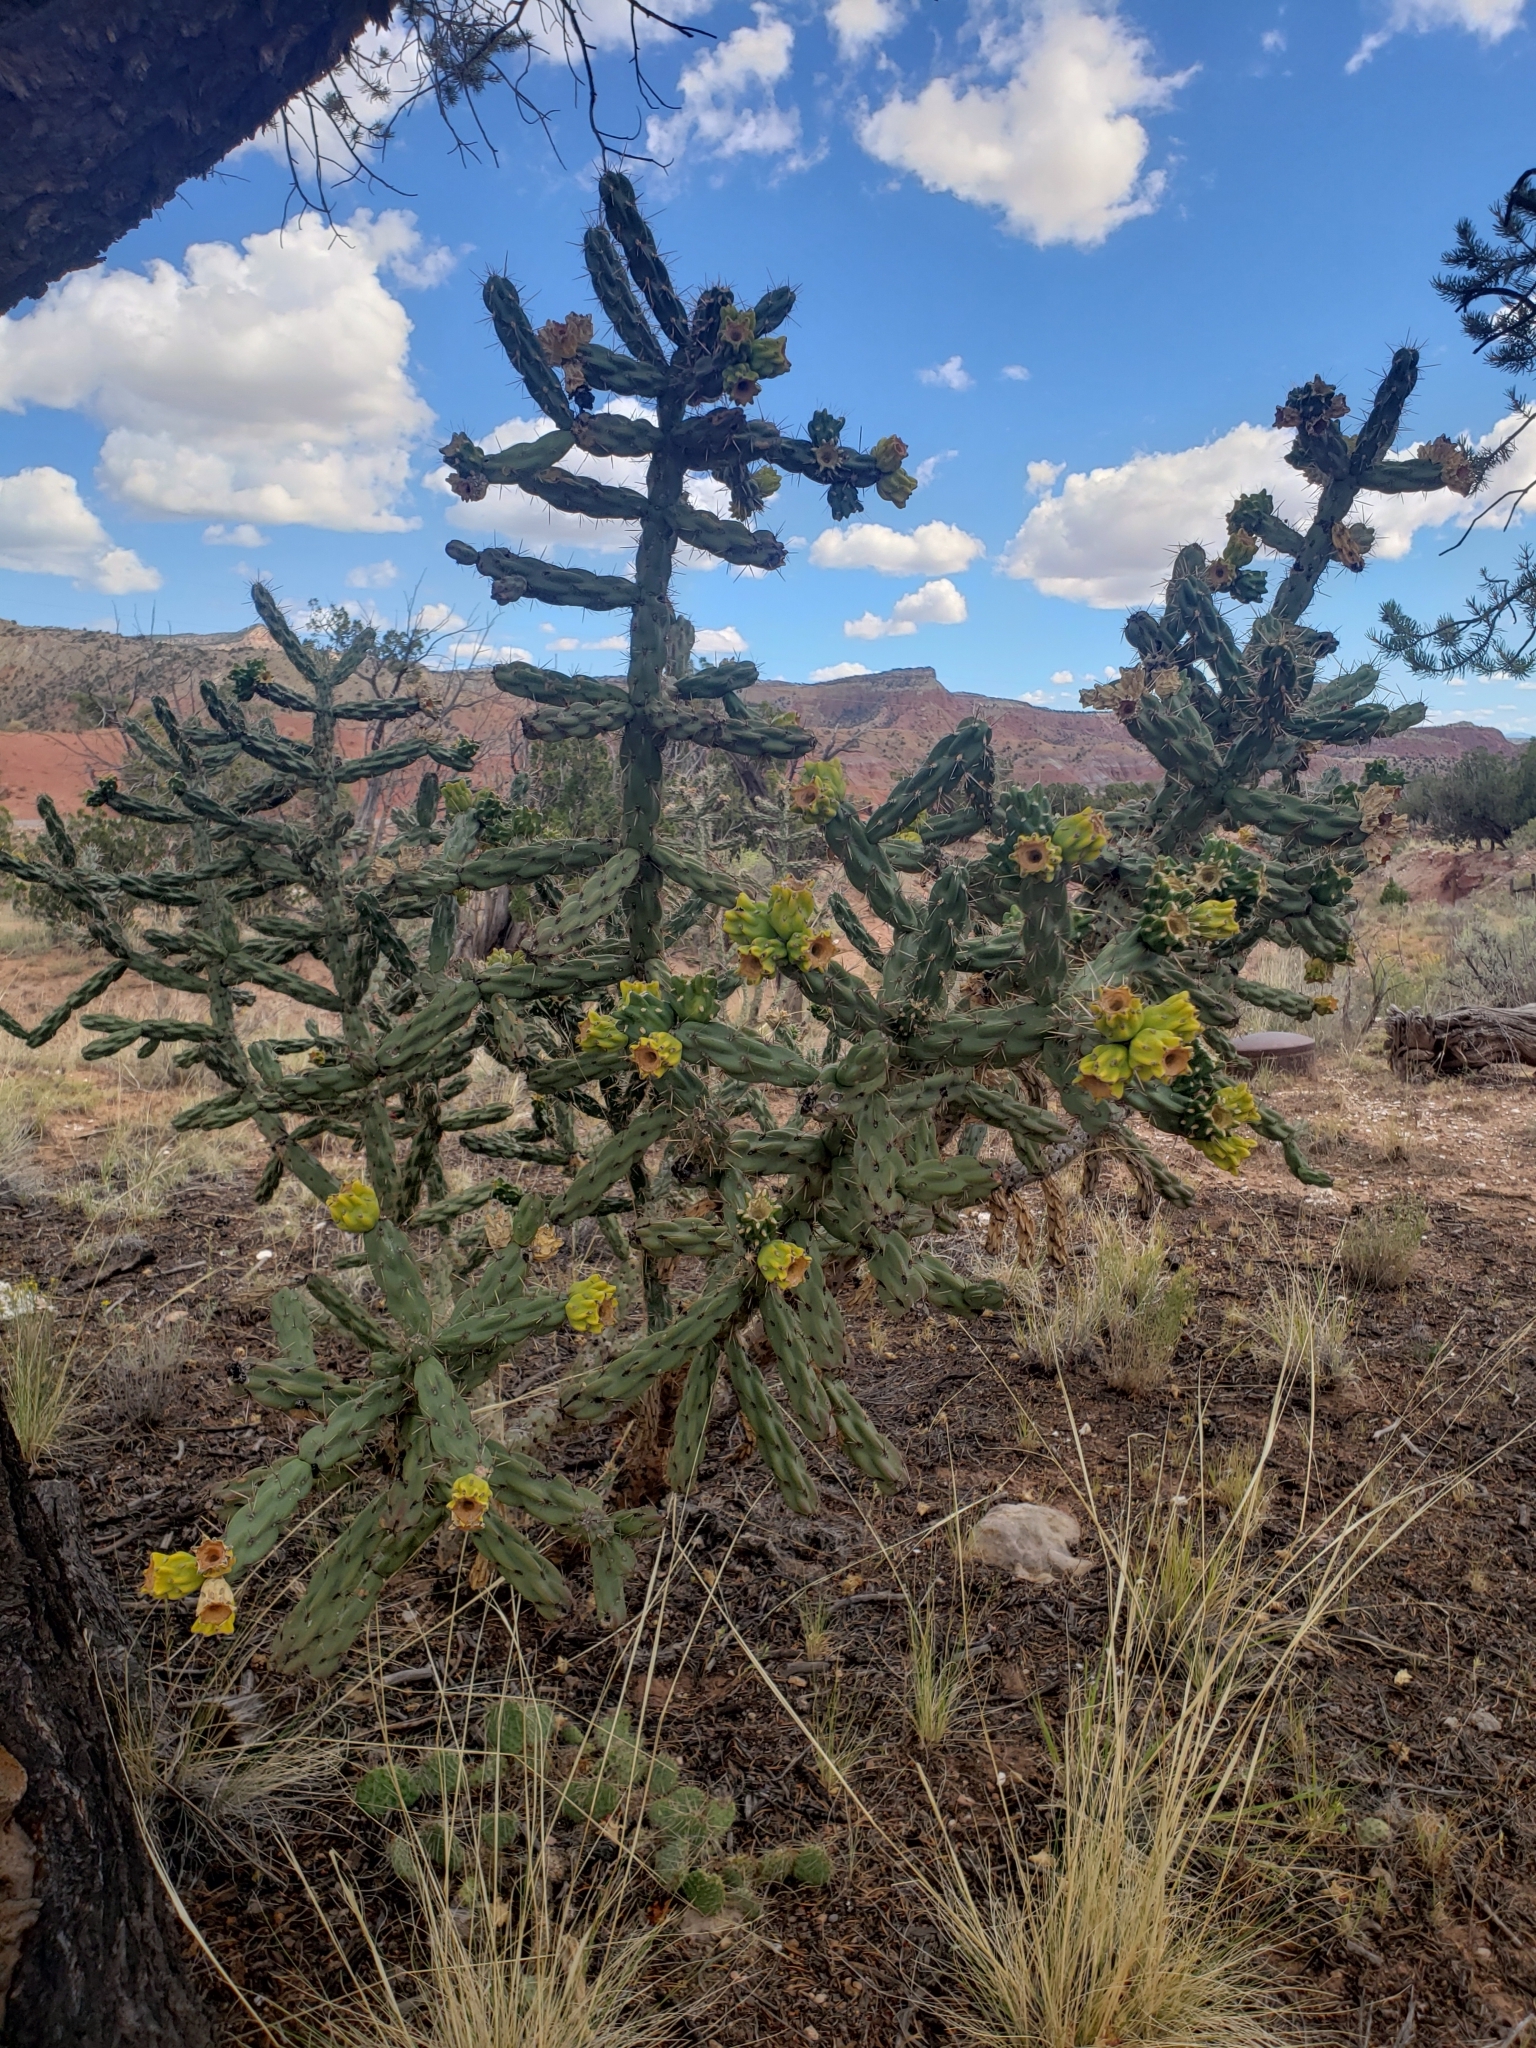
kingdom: Plantae
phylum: Tracheophyta
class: Magnoliopsida
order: Caryophyllales
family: Cactaceae
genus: Cylindropuntia
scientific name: Cylindropuntia imbricata
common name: Candelabrum cactus
